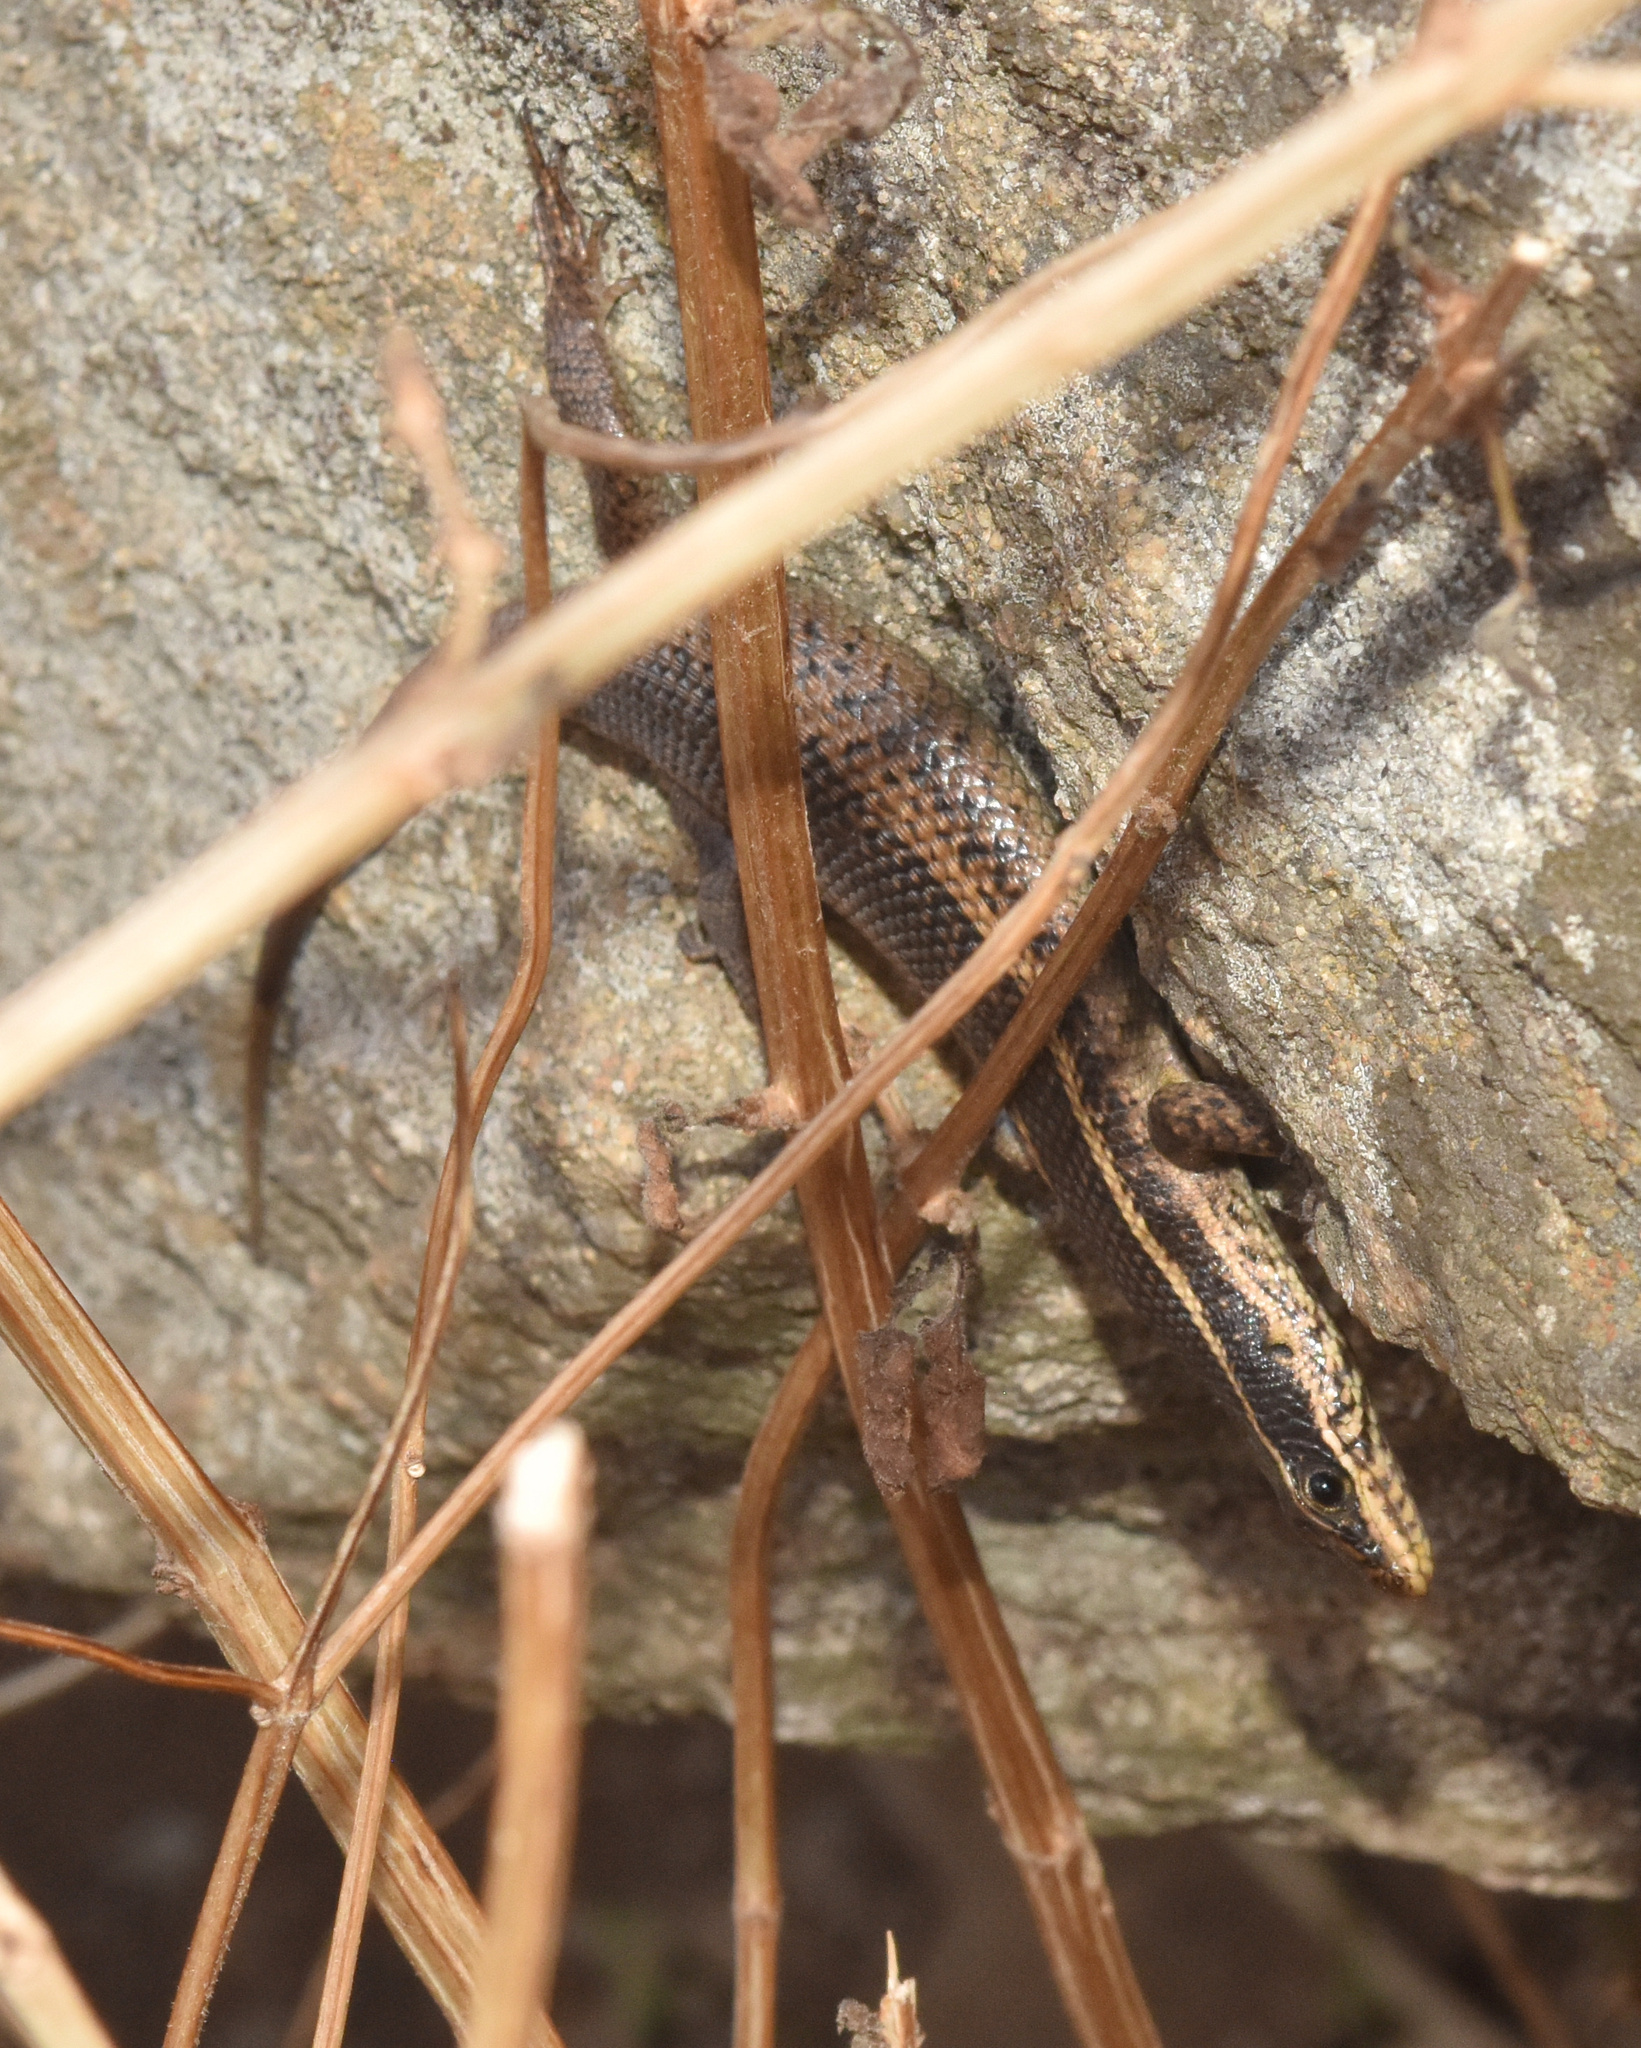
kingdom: Animalia
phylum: Chordata
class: Squamata
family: Scincidae
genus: Trachylepis
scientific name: Trachylepis punctatissima
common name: Montane speckled skink
